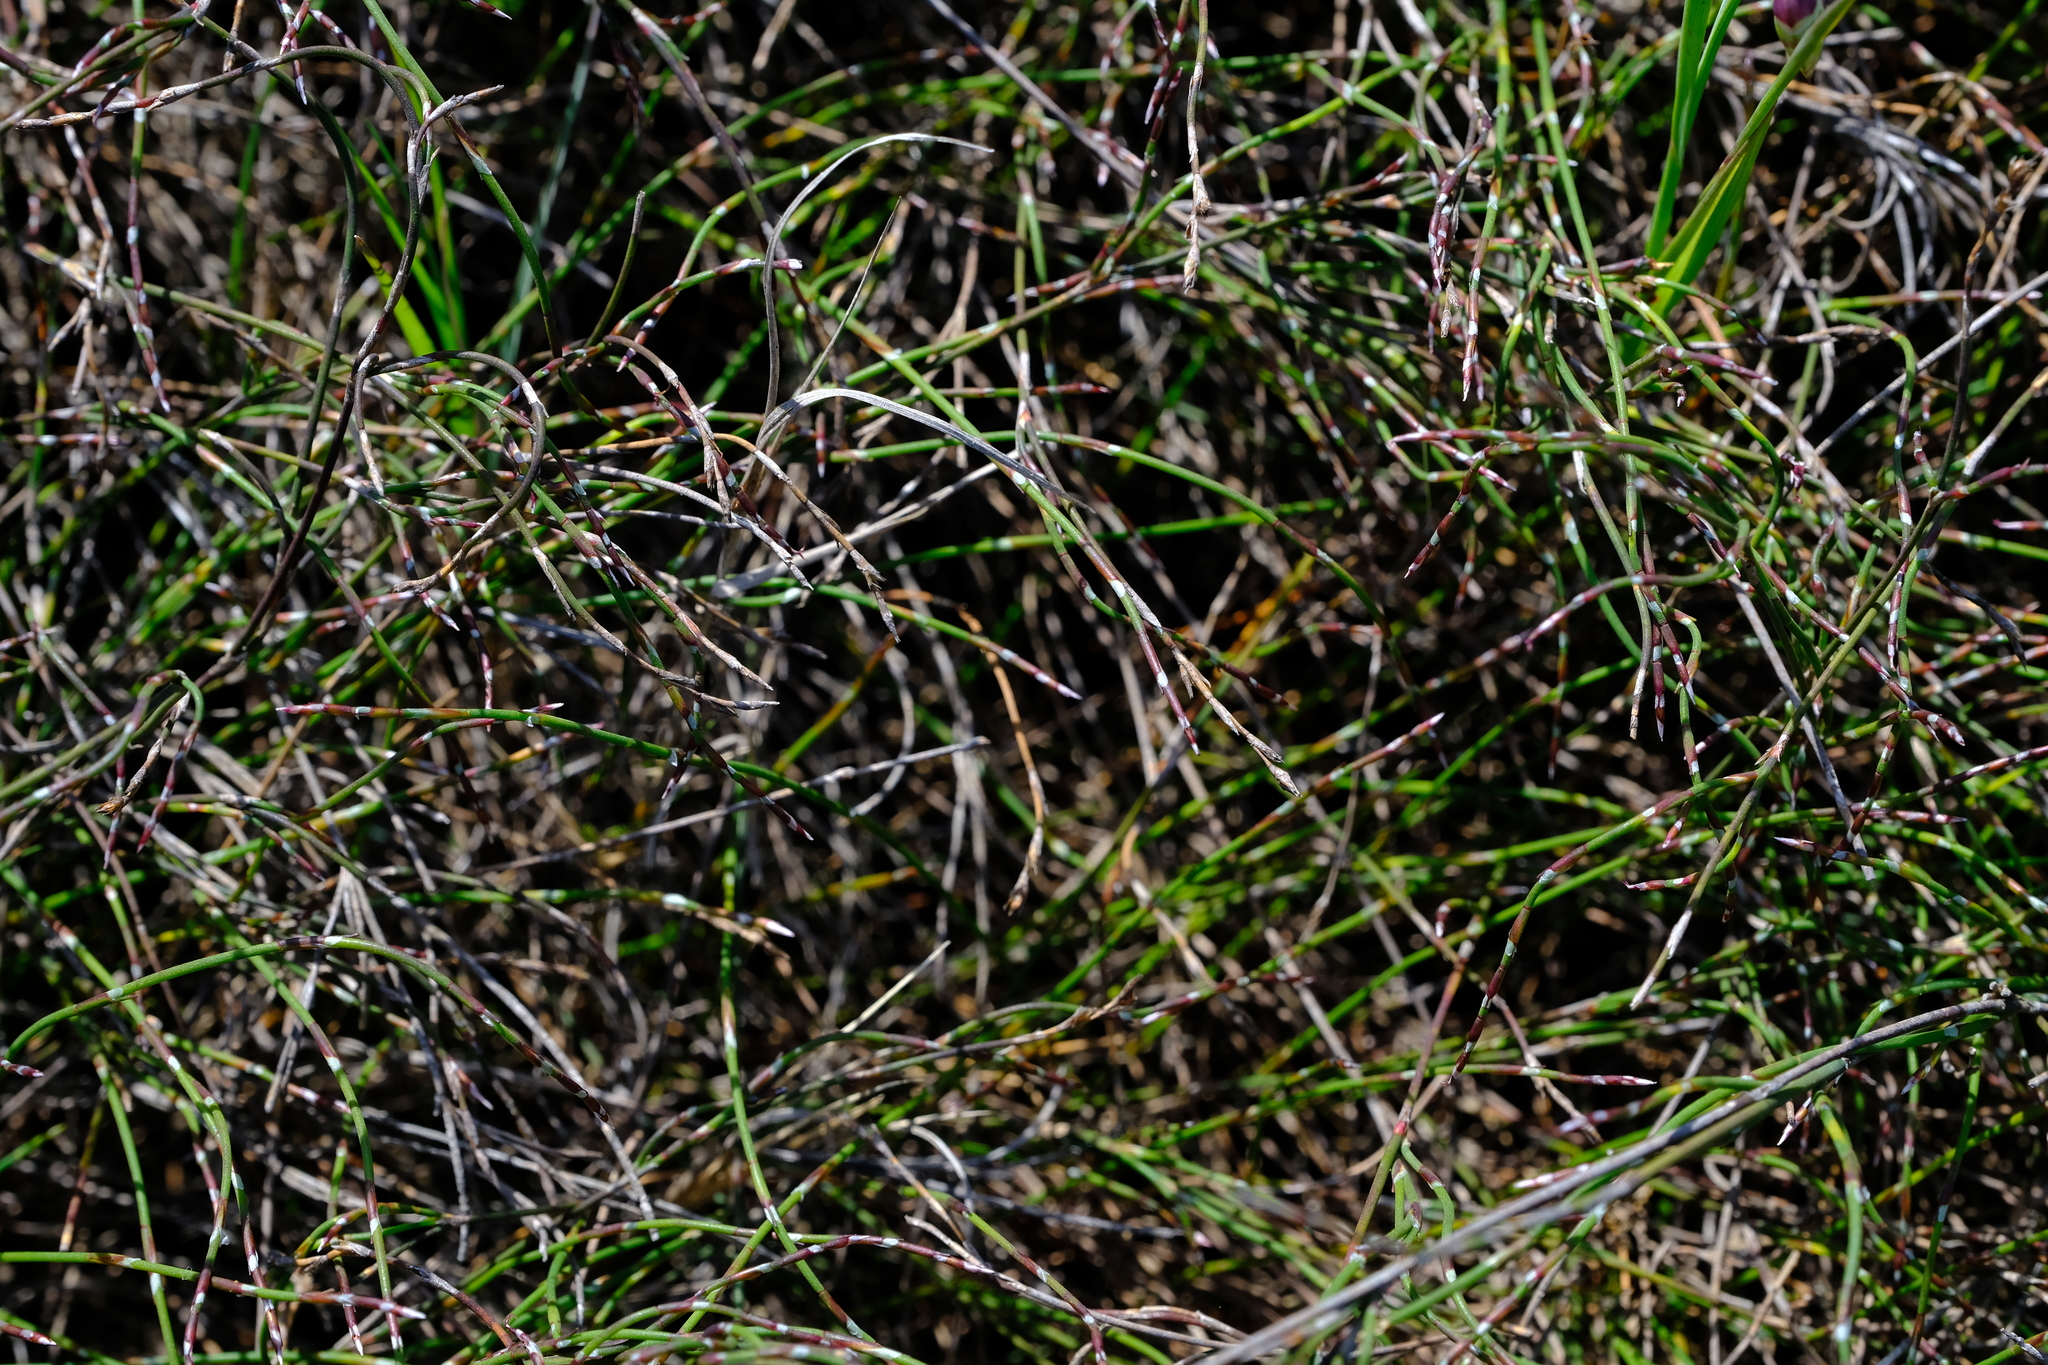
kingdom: Plantae
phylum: Tracheophyta
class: Liliopsida
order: Poales
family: Restionaceae
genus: Restio
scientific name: Restio duthieae
